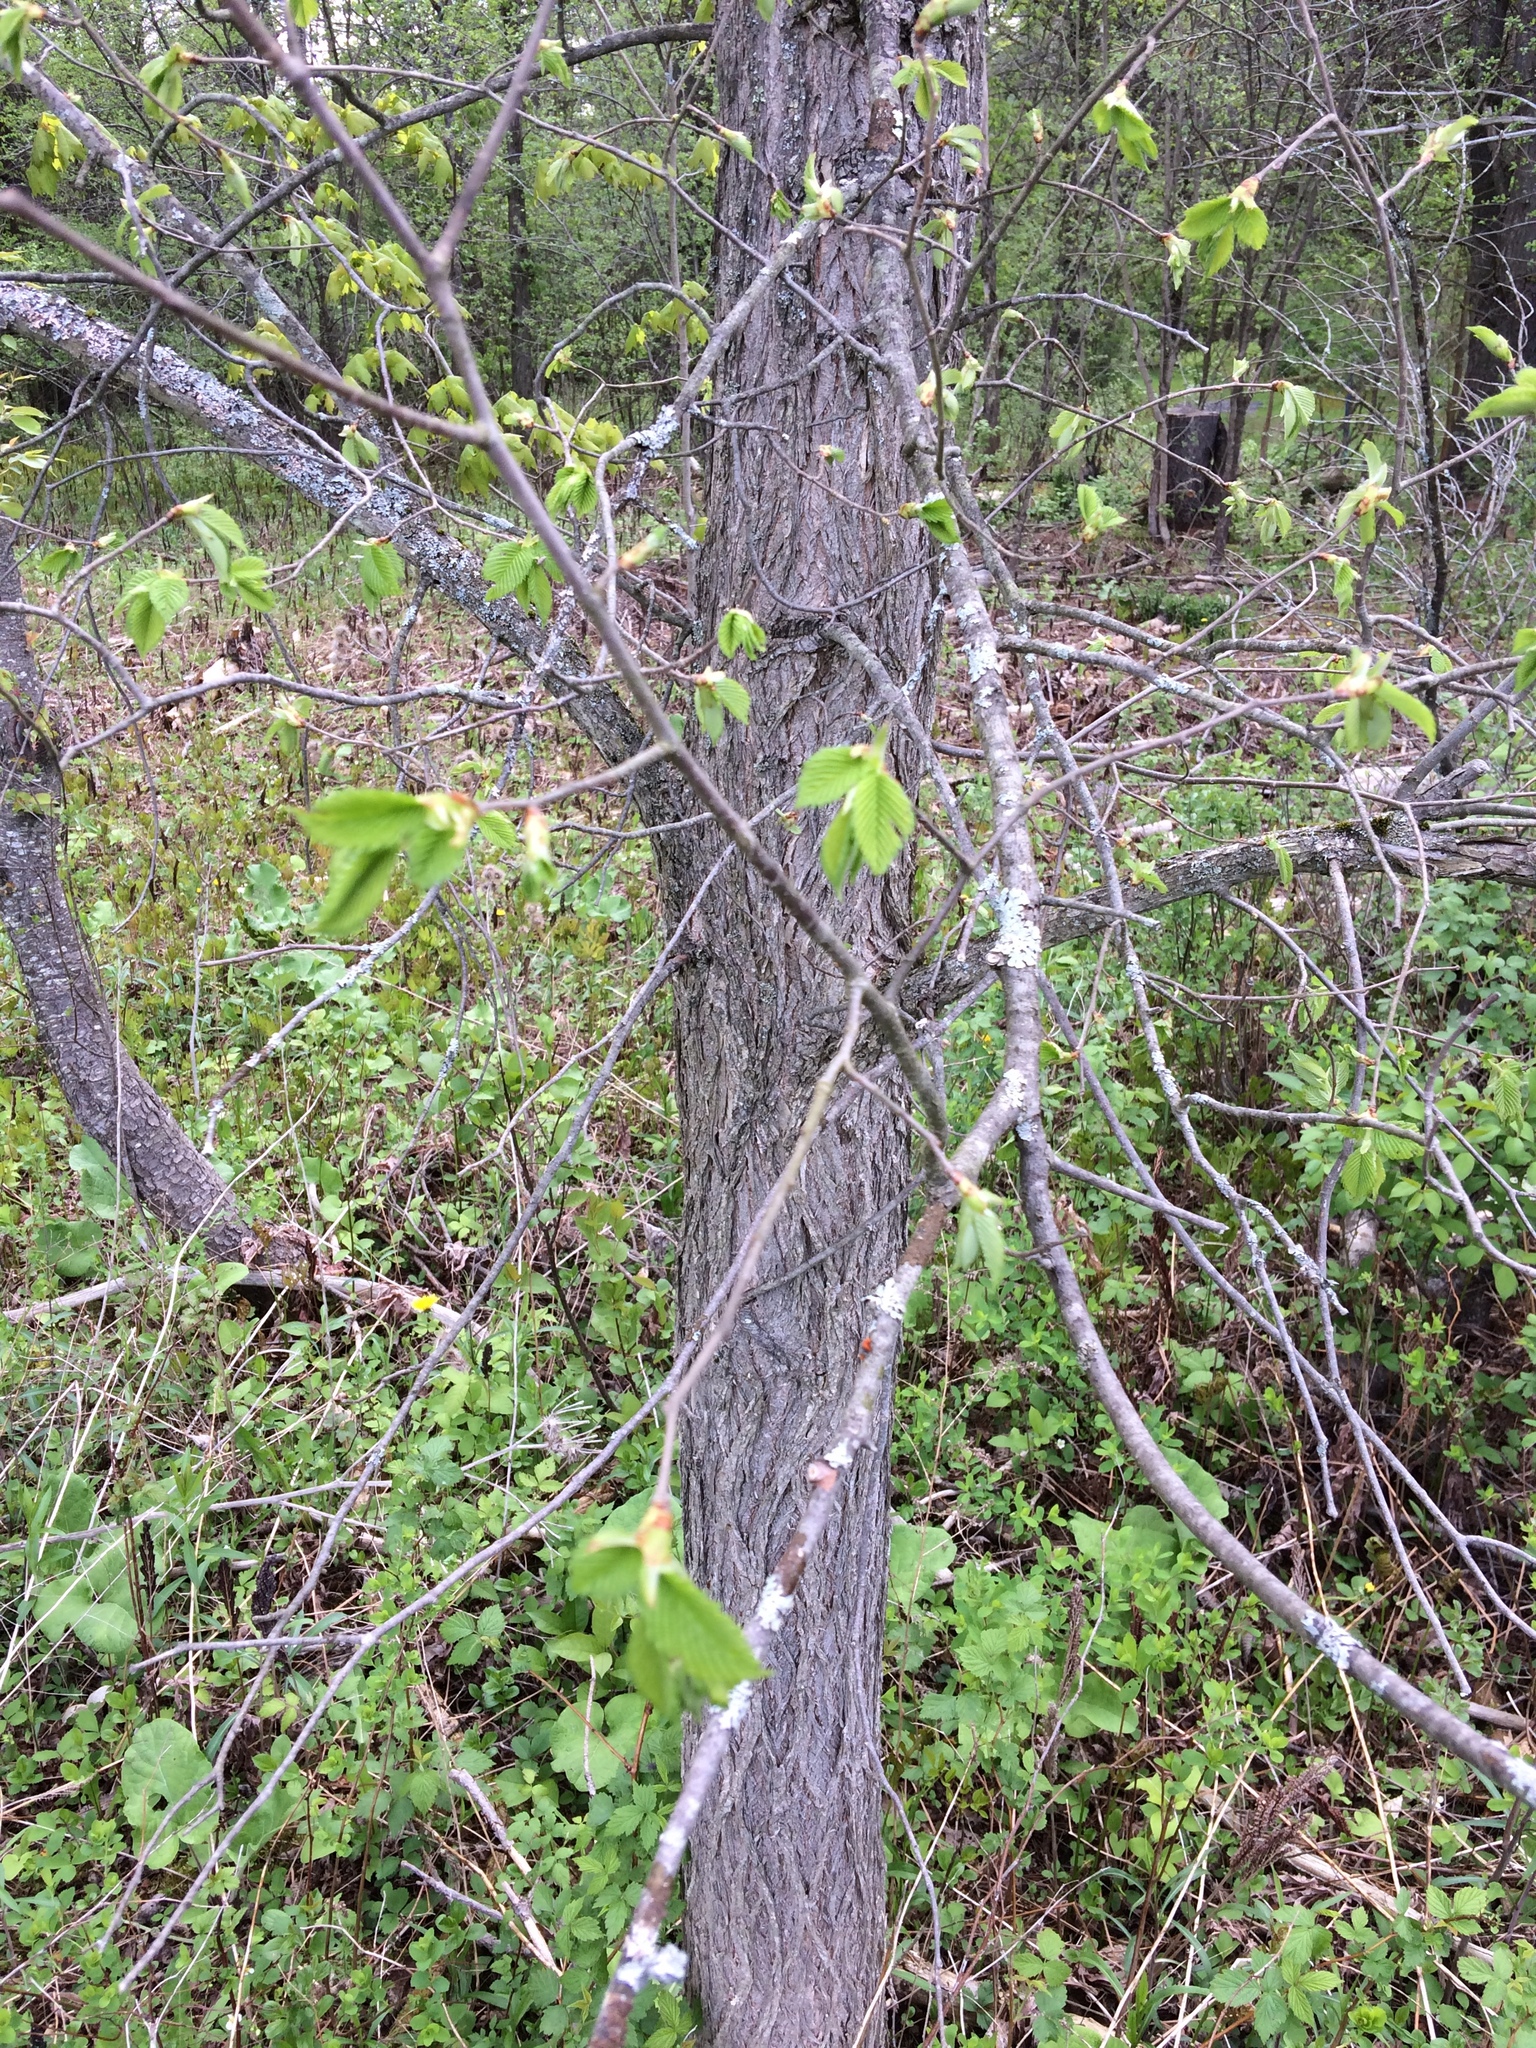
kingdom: Plantae
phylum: Tracheophyta
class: Magnoliopsida
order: Rosales
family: Ulmaceae
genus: Ulmus
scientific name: Ulmus americana
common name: American elm
